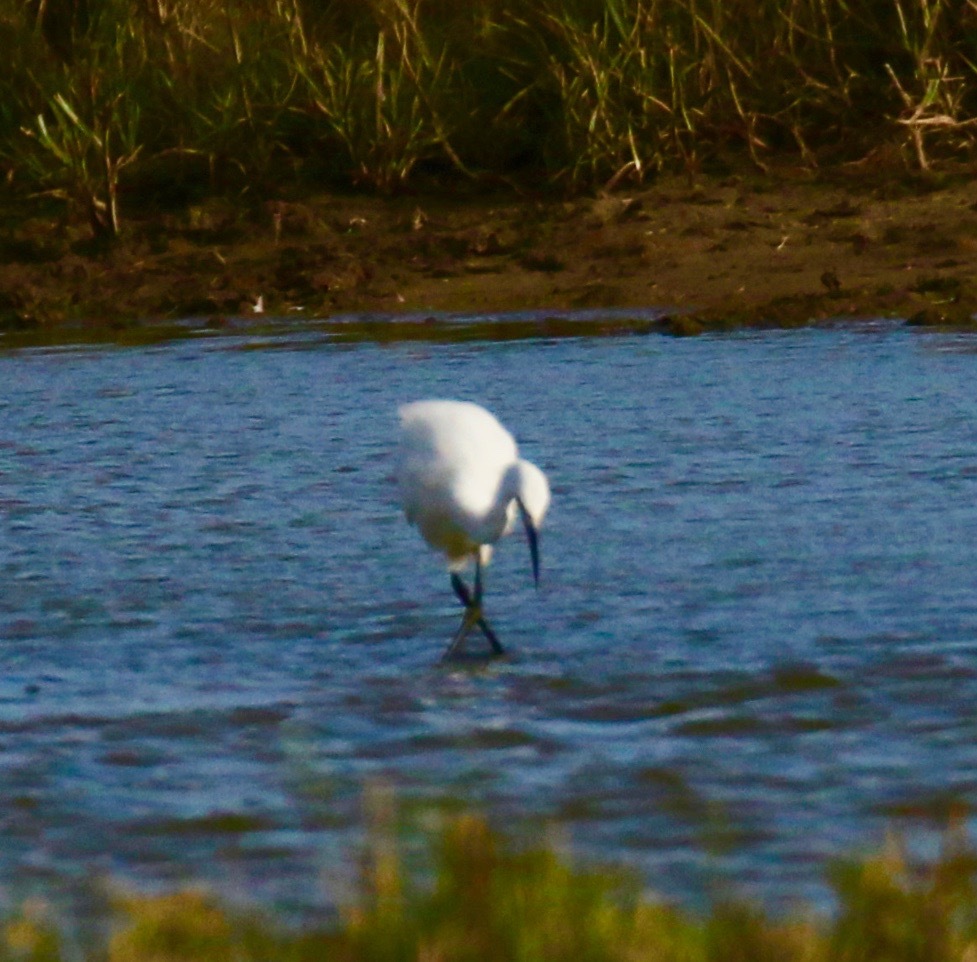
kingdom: Animalia
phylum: Chordata
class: Aves
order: Pelecaniformes
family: Ardeidae
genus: Egretta
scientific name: Egretta garzetta
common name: Little egret
